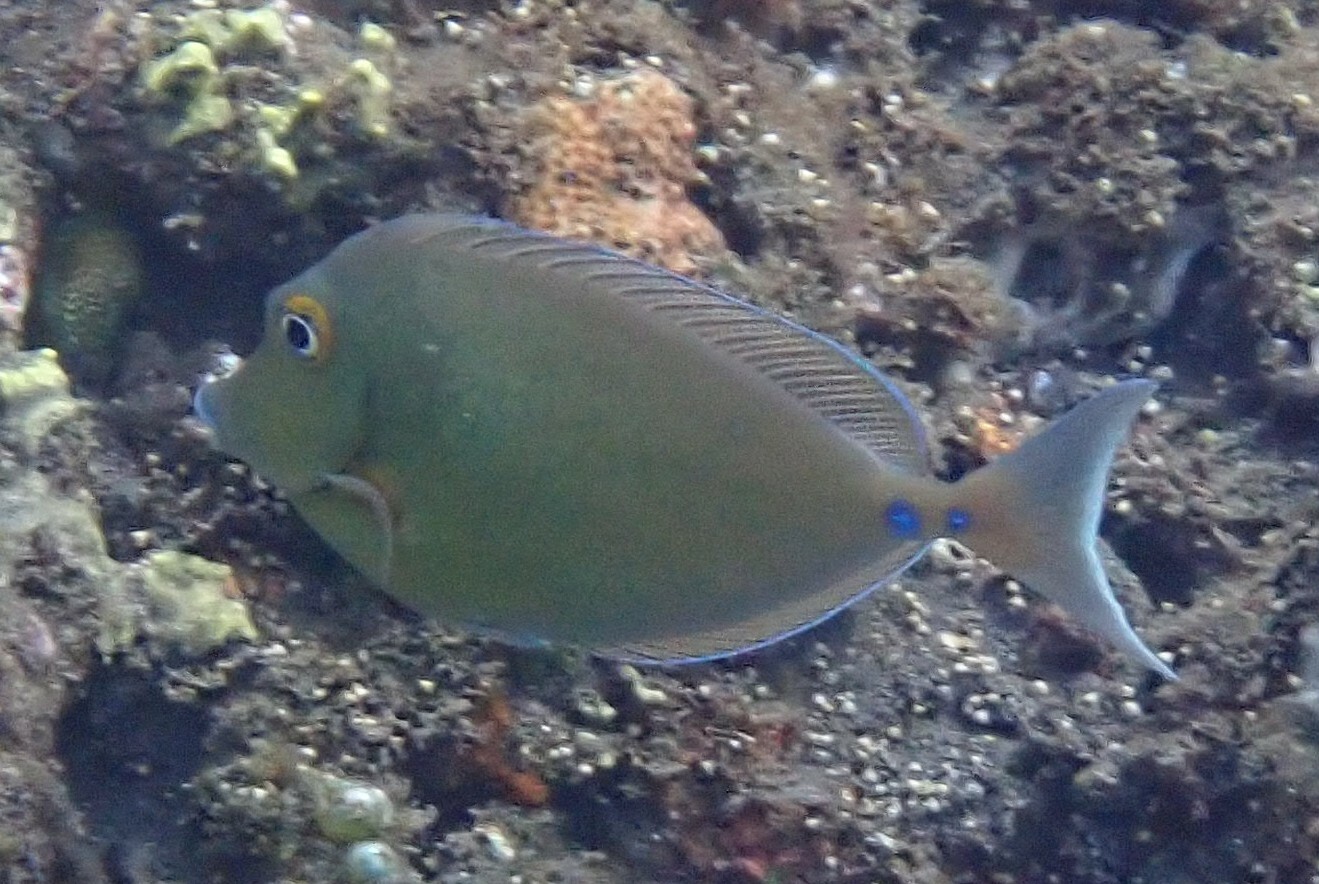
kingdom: Animalia
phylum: Chordata
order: Perciformes
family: Acanthuridae
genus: Naso
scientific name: Naso unicornis
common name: Bluespine unicornfish
